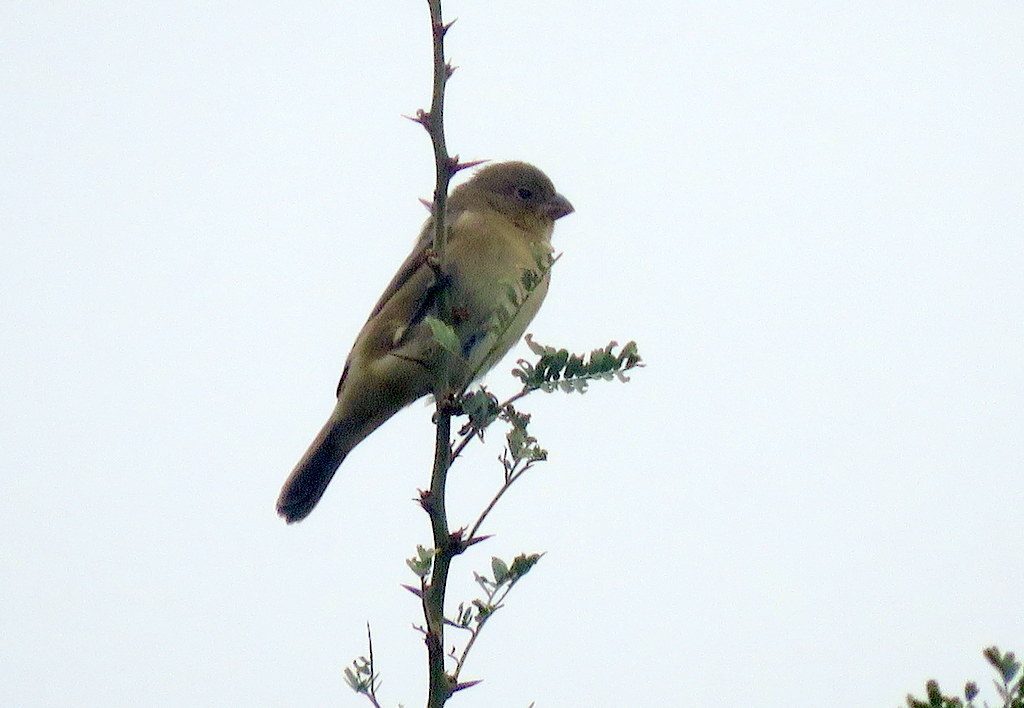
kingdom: Animalia
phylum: Chordata
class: Aves
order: Passeriformes
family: Thraupidae
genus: Sporophila
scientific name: Sporophila caerulescens
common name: Double-collared seedeater
